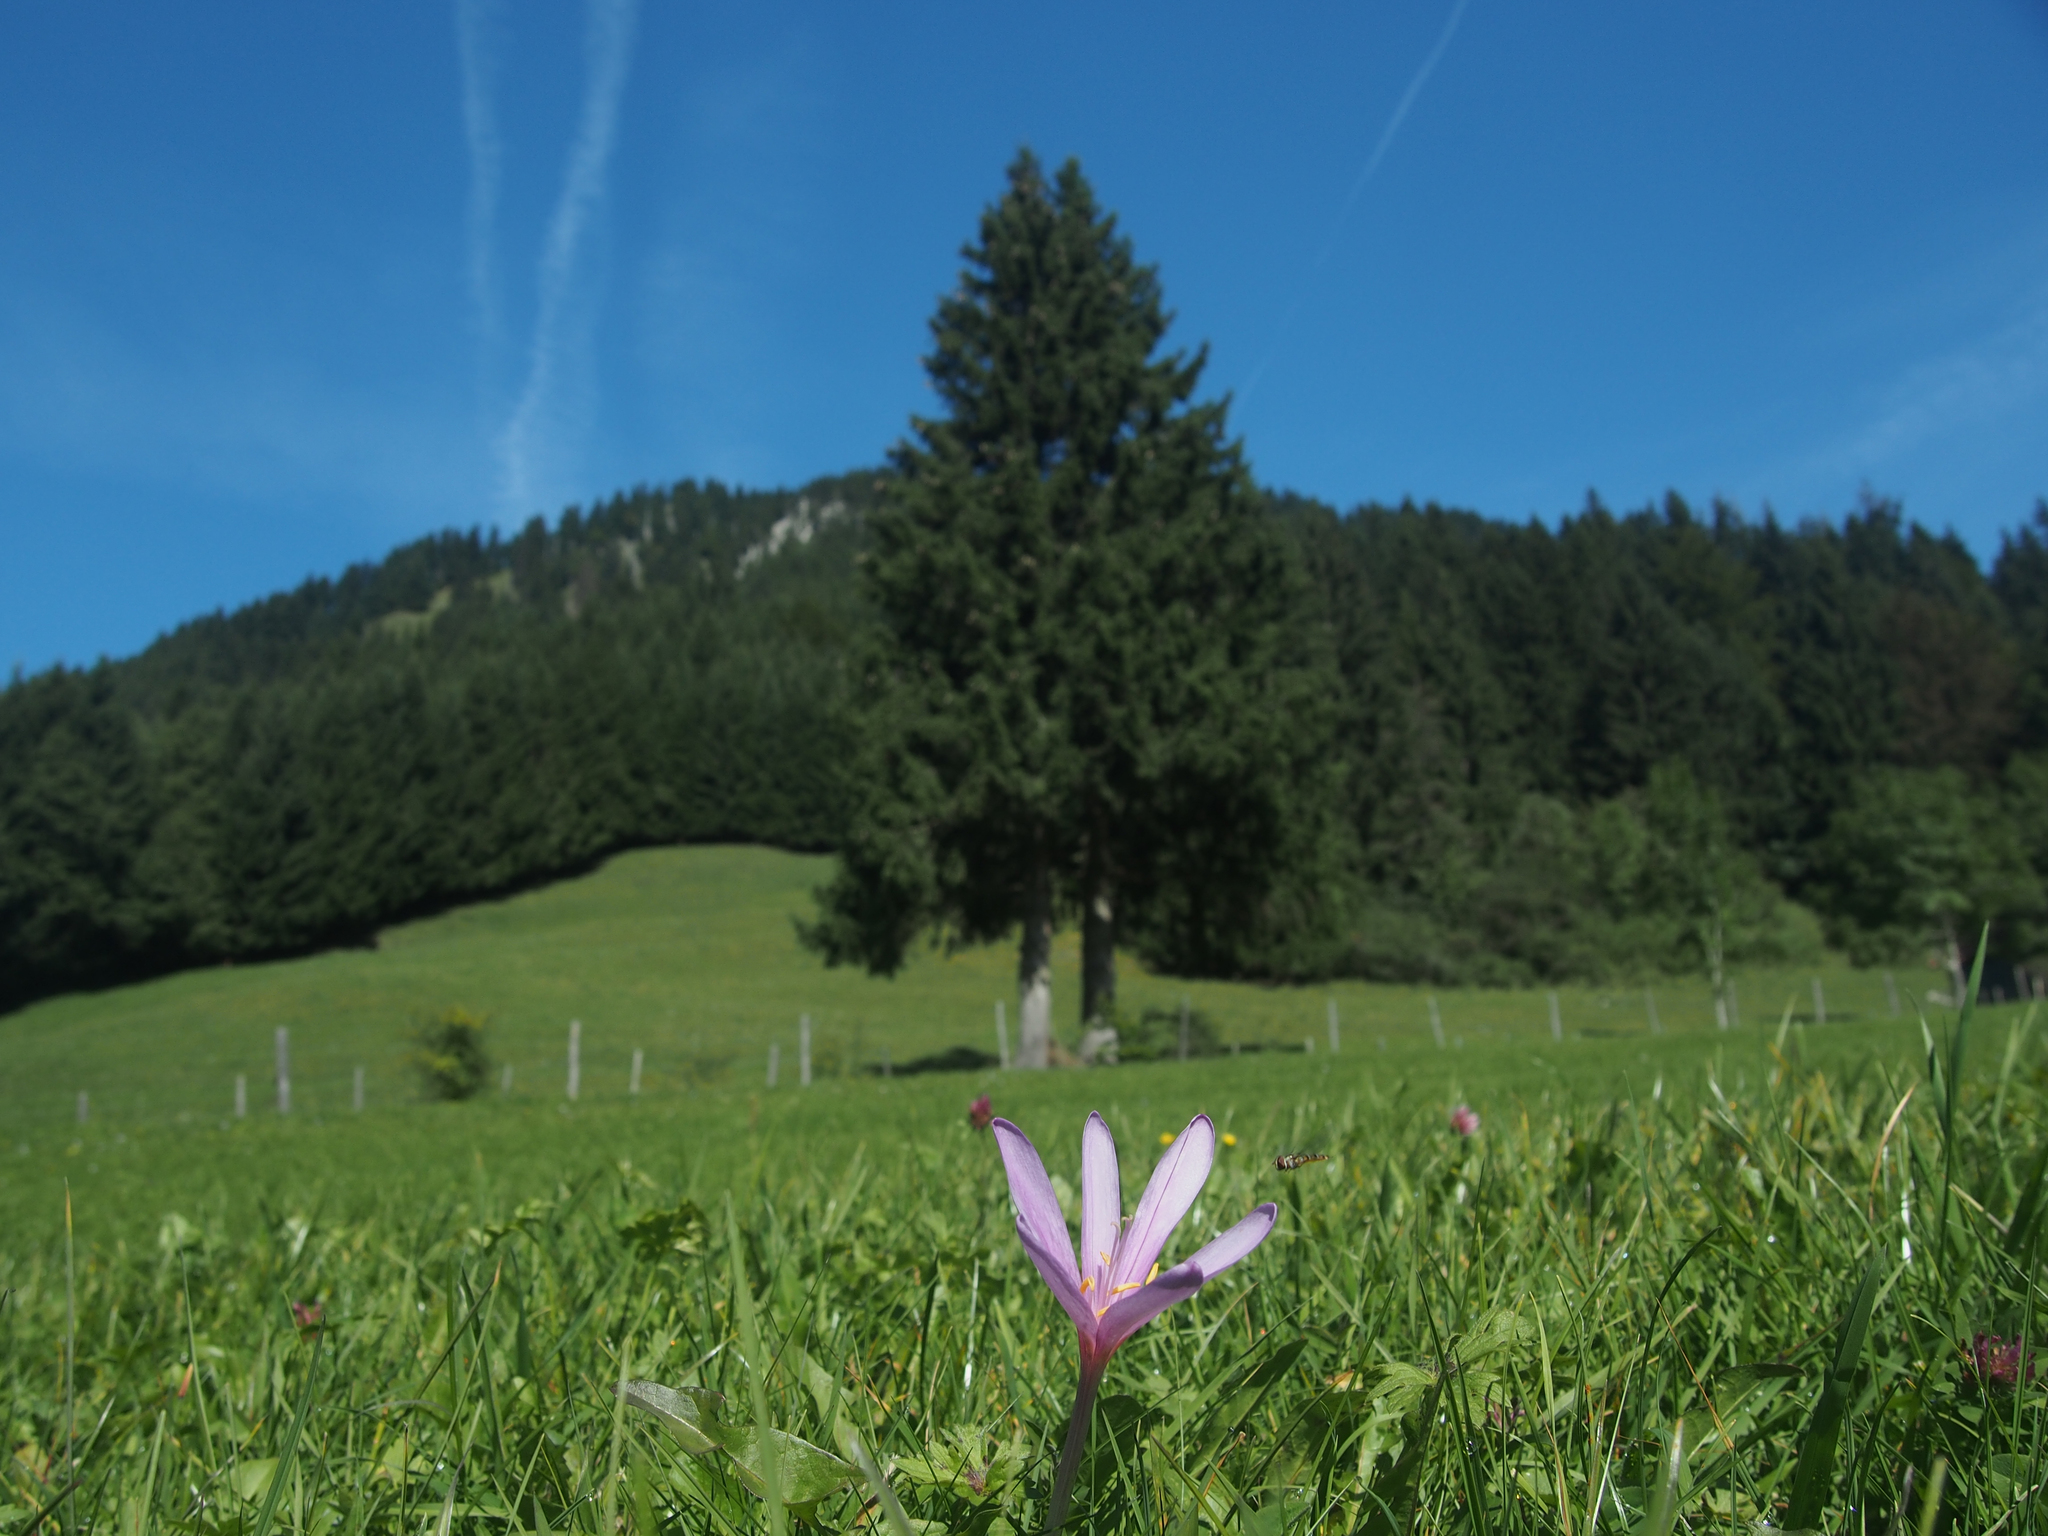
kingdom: Plantae
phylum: Tracheophyta
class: Liliopsida
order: Liliales
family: Colchicaceae
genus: Colchicum
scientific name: Colchicum autumnale
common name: Autumn crocus
